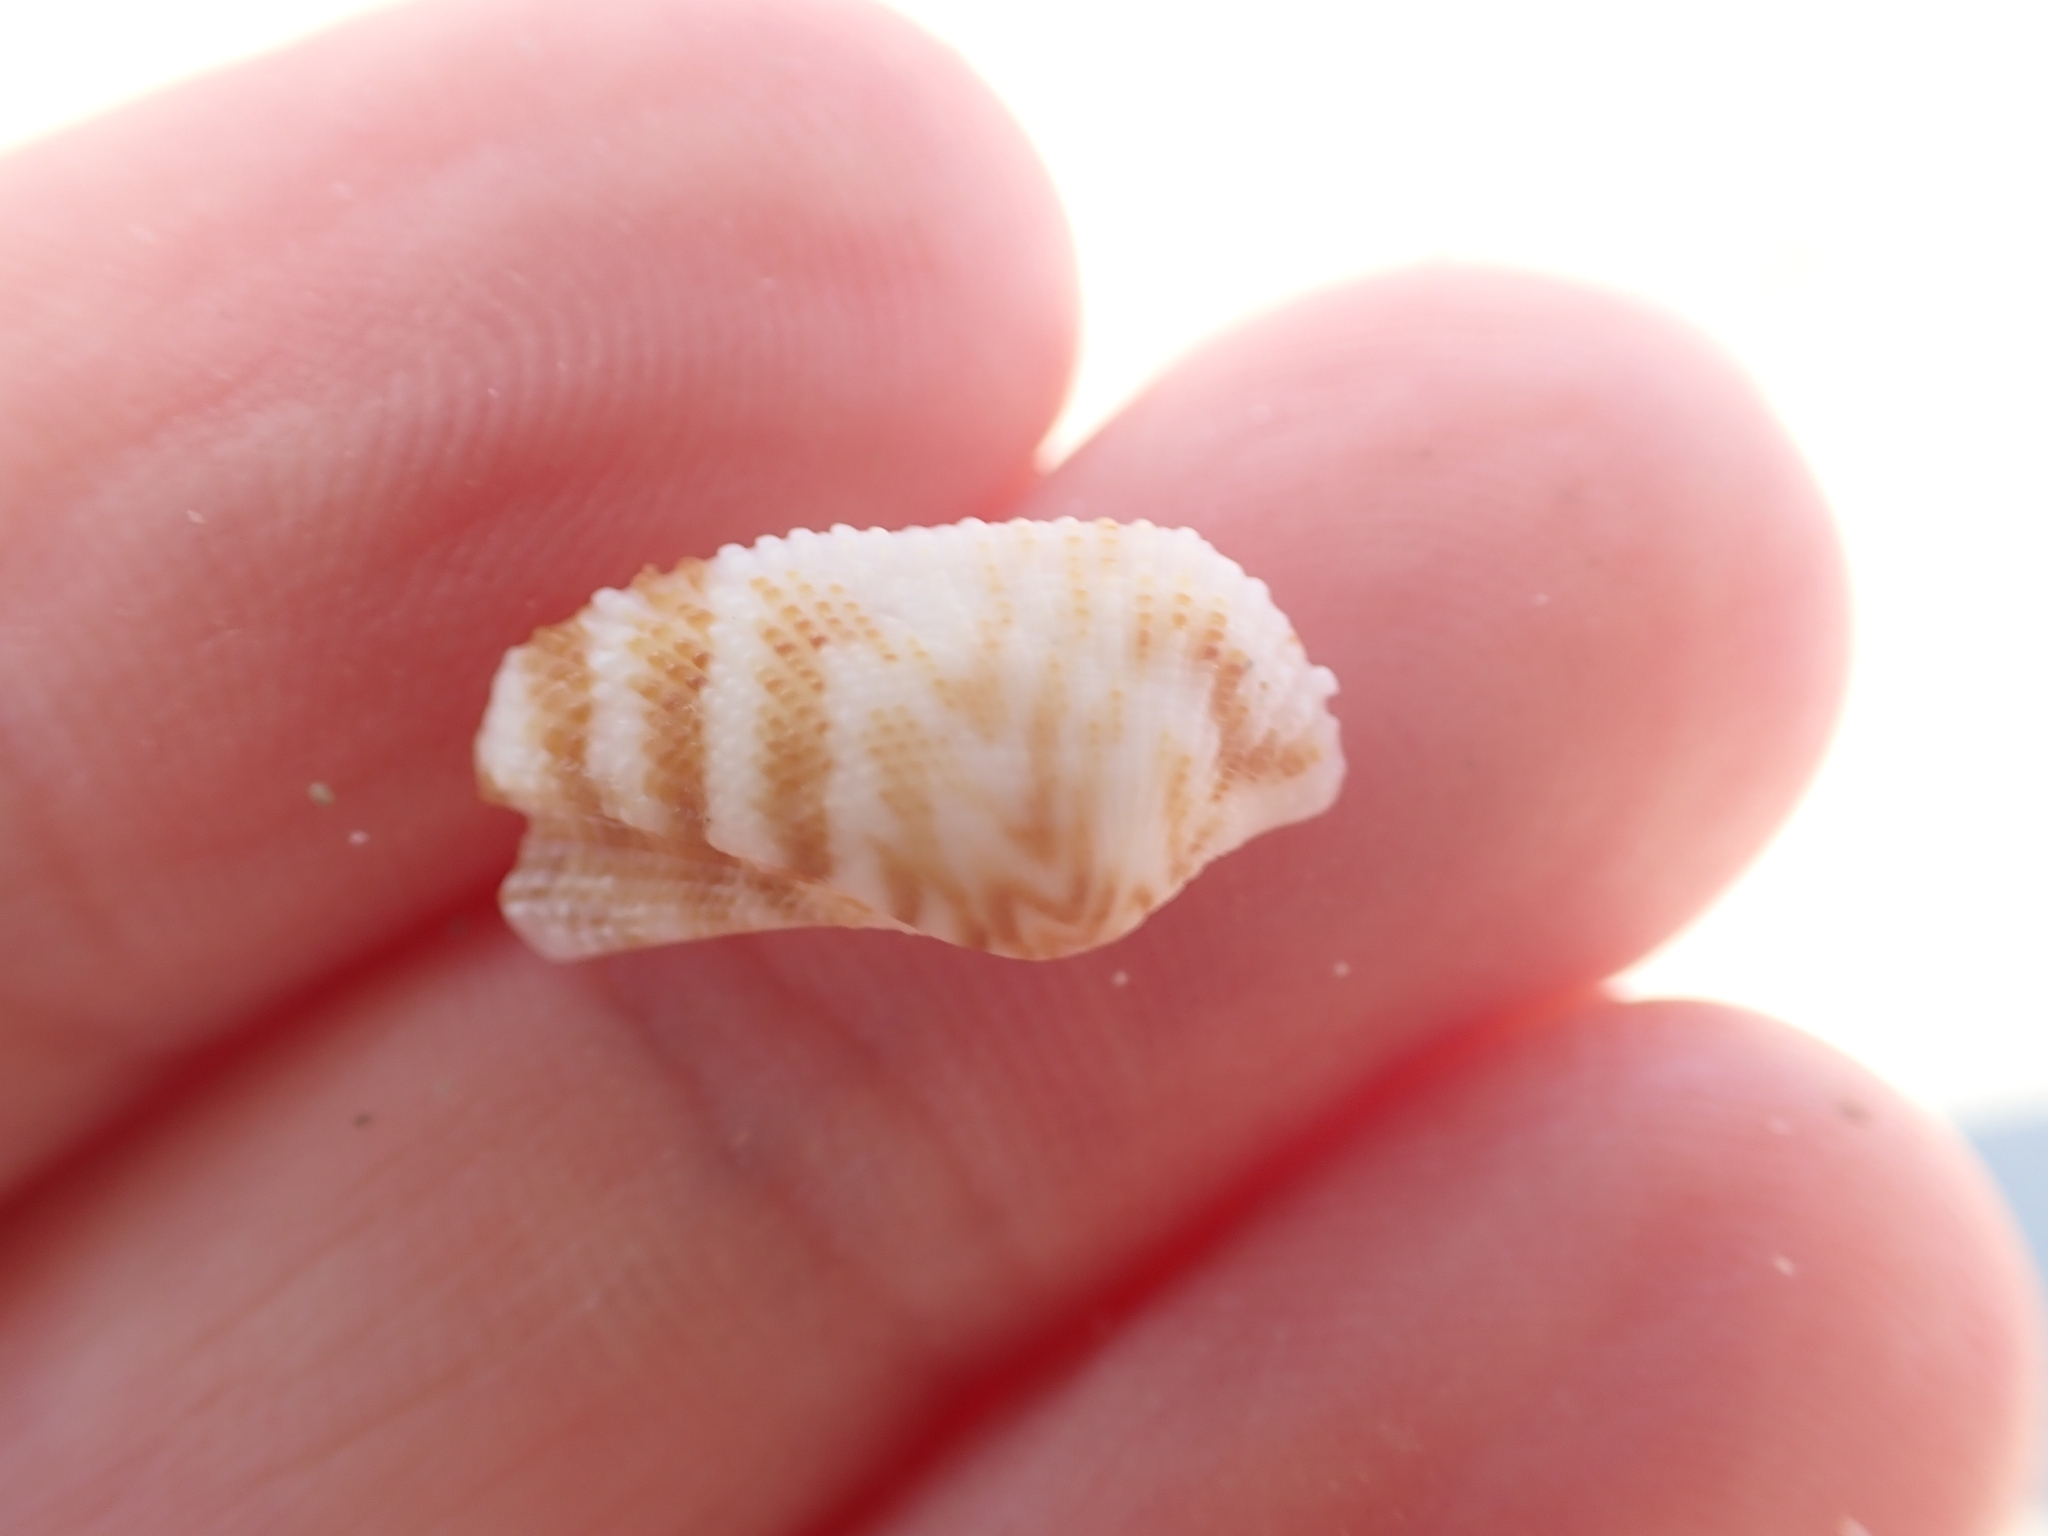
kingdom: Animalia
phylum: Mollusca
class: Bivalvia
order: Arcida
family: Arcidae
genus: Arca
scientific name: Arca noae
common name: Noah's arch
